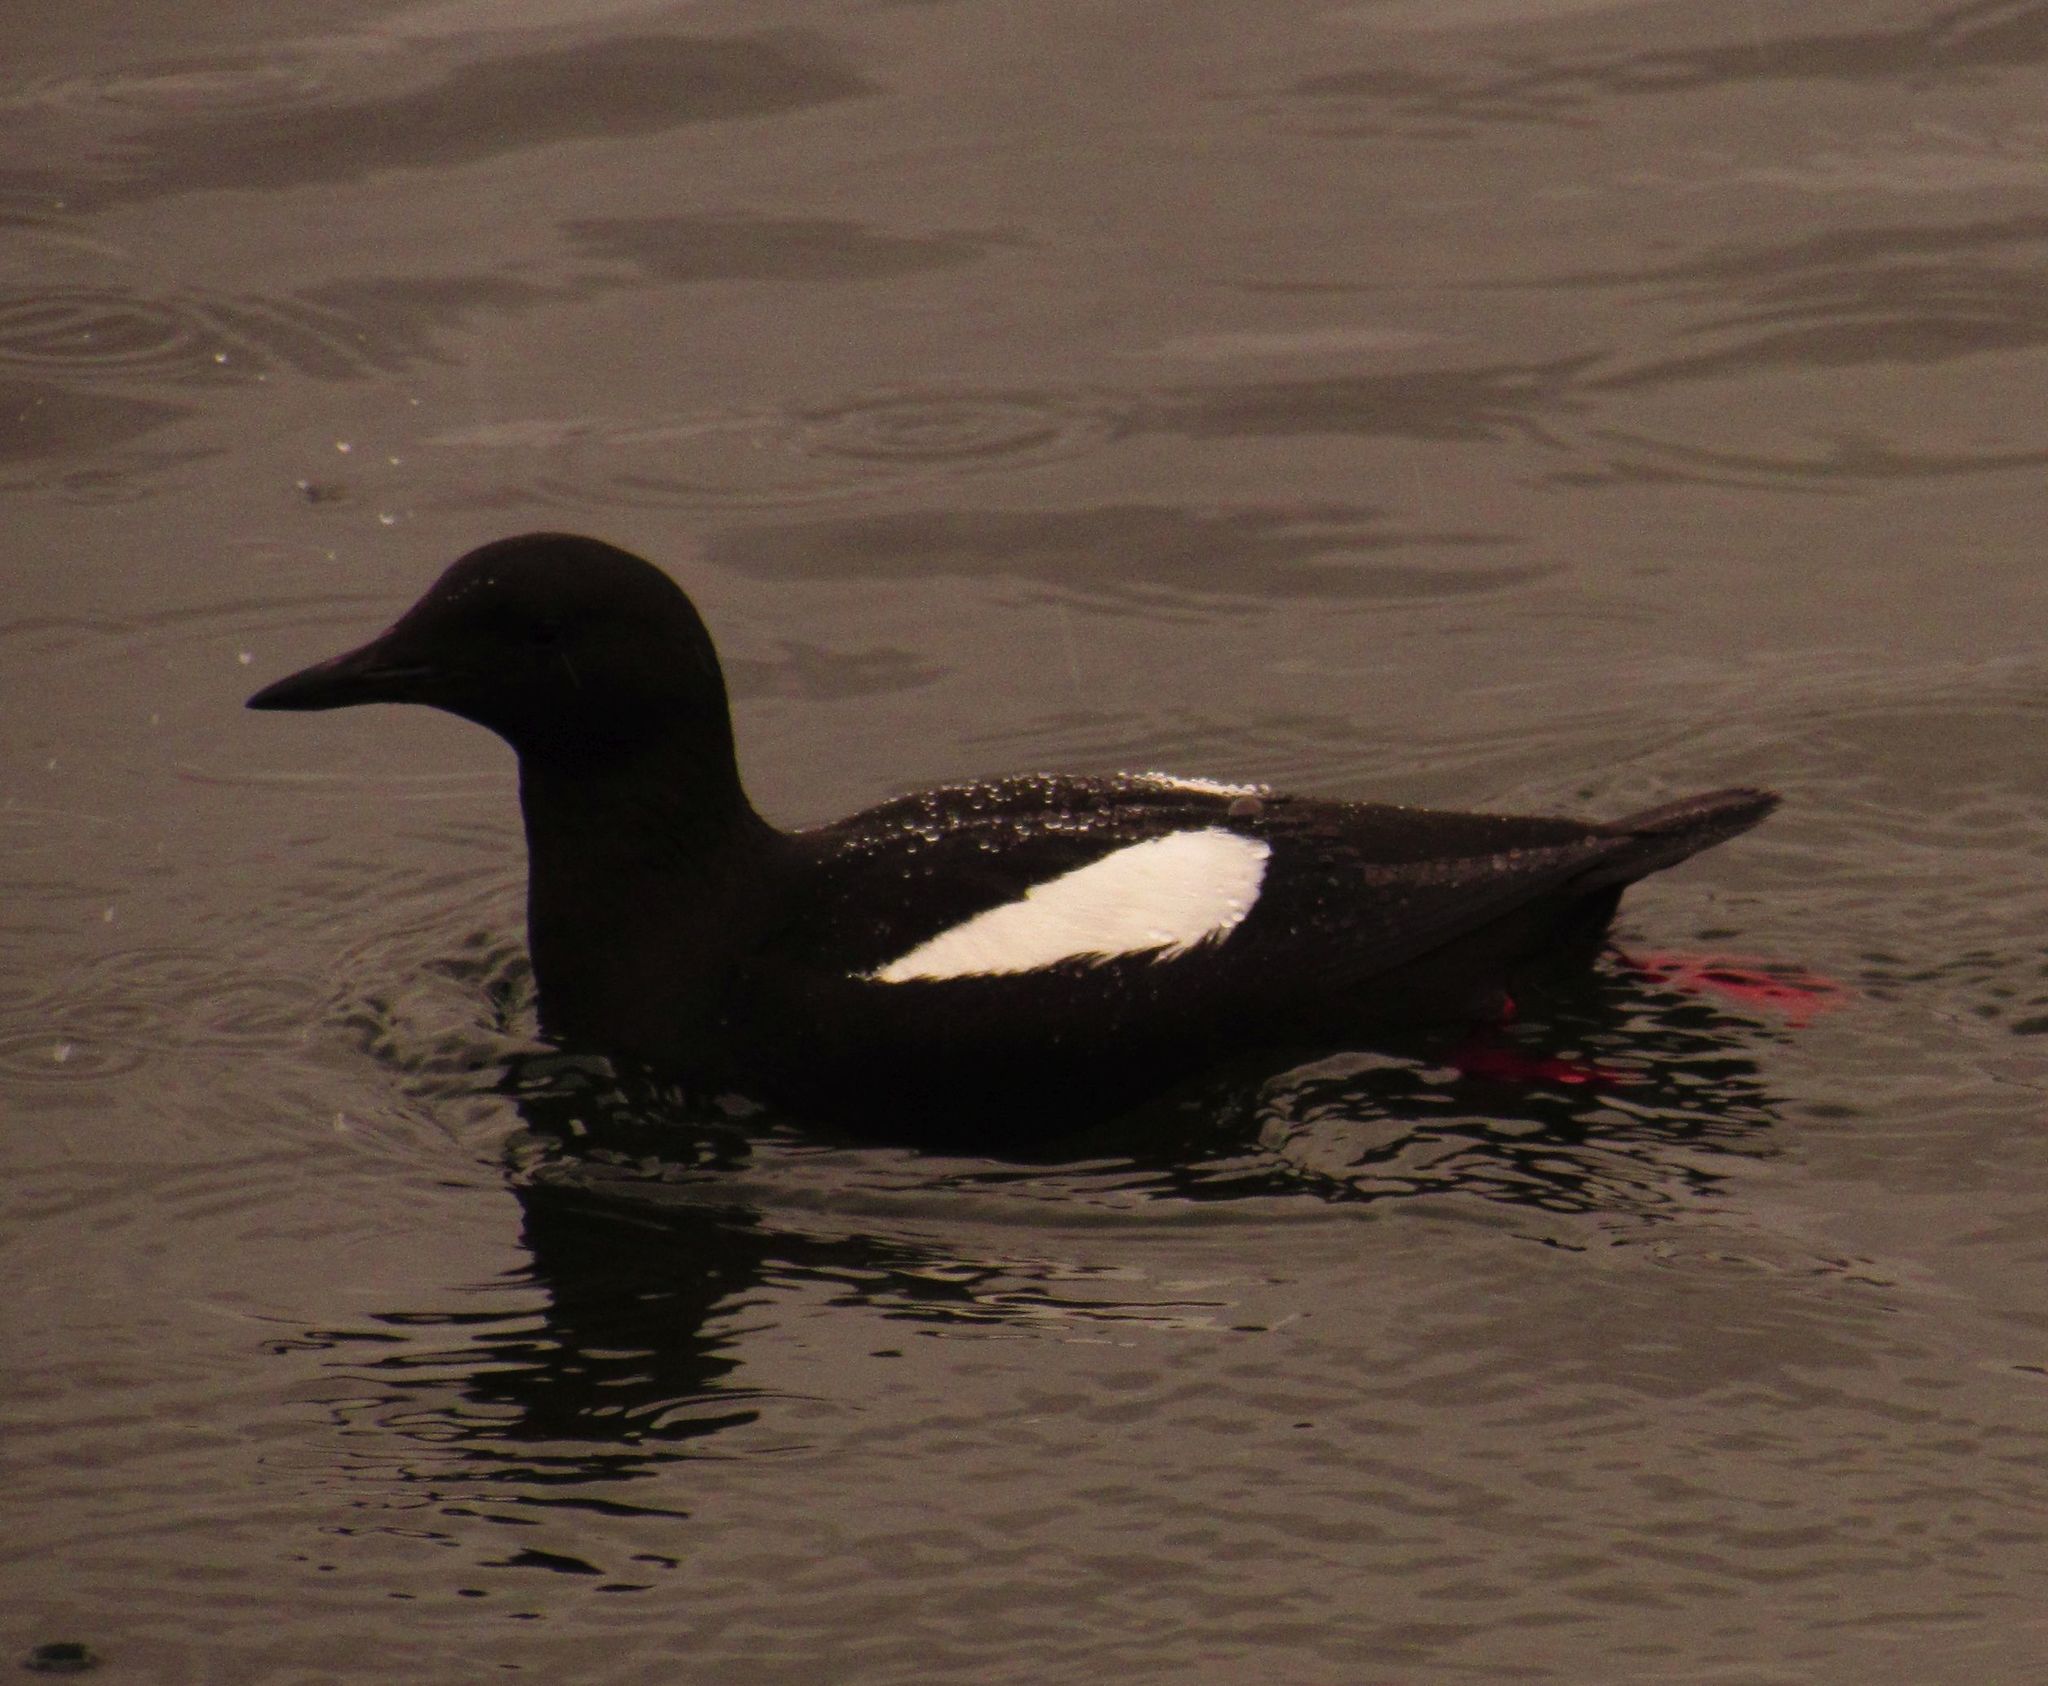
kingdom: Animalia
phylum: Chordata
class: Aves
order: Charadriiformes
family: Alcidae
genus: Cepphus
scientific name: Cepphus grylle
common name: Black guillemot
